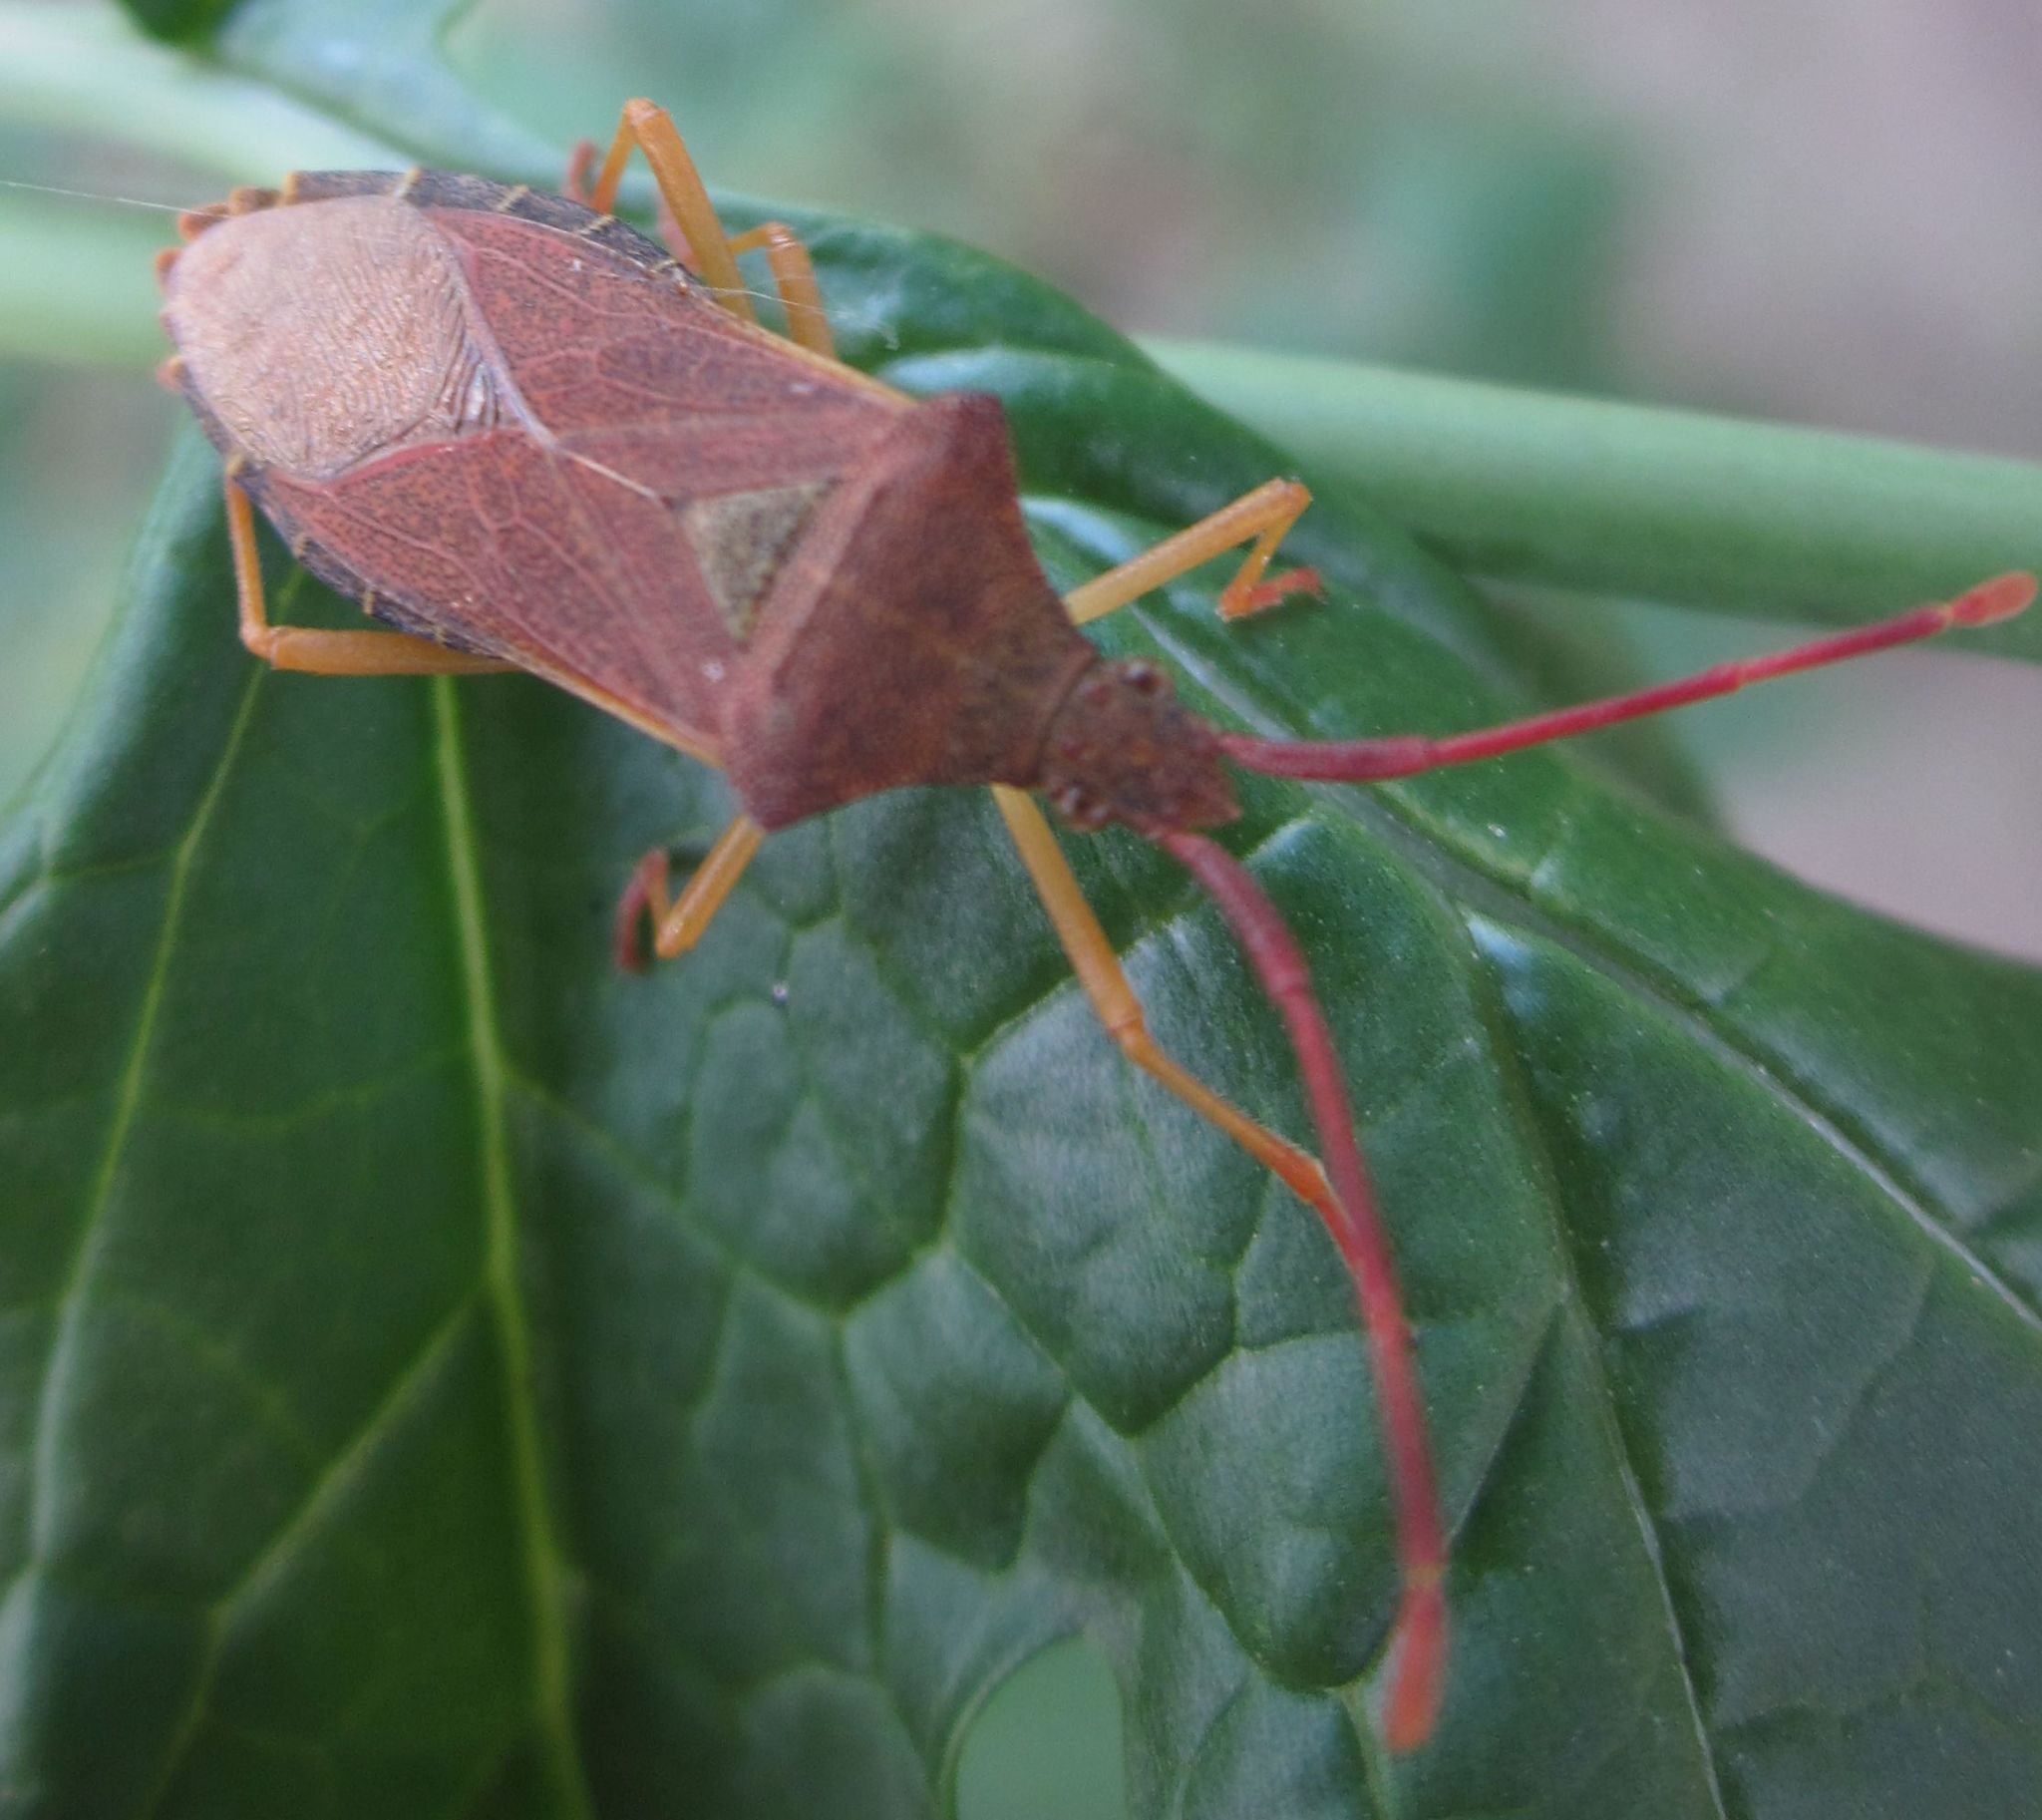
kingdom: Animalia
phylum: Arthropoda
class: Insecta
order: Hemiptera
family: Coreidae
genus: Gonocerus
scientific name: Gonocerus acuteangulatus
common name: Box bug
